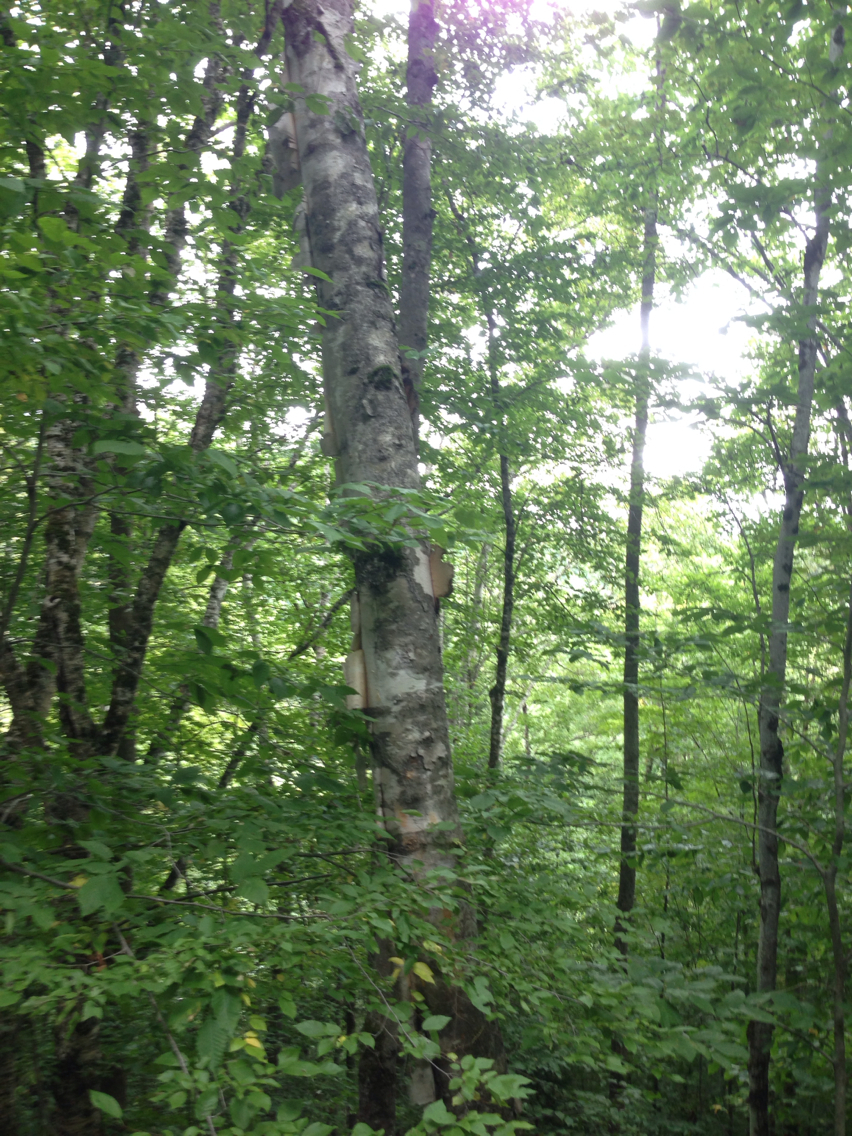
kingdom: Plantae
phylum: Tracheophyta
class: Magnoliopsida
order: Fagales
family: Betulaceae
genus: Betula
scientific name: Betula papyrifera
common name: Paper birch
